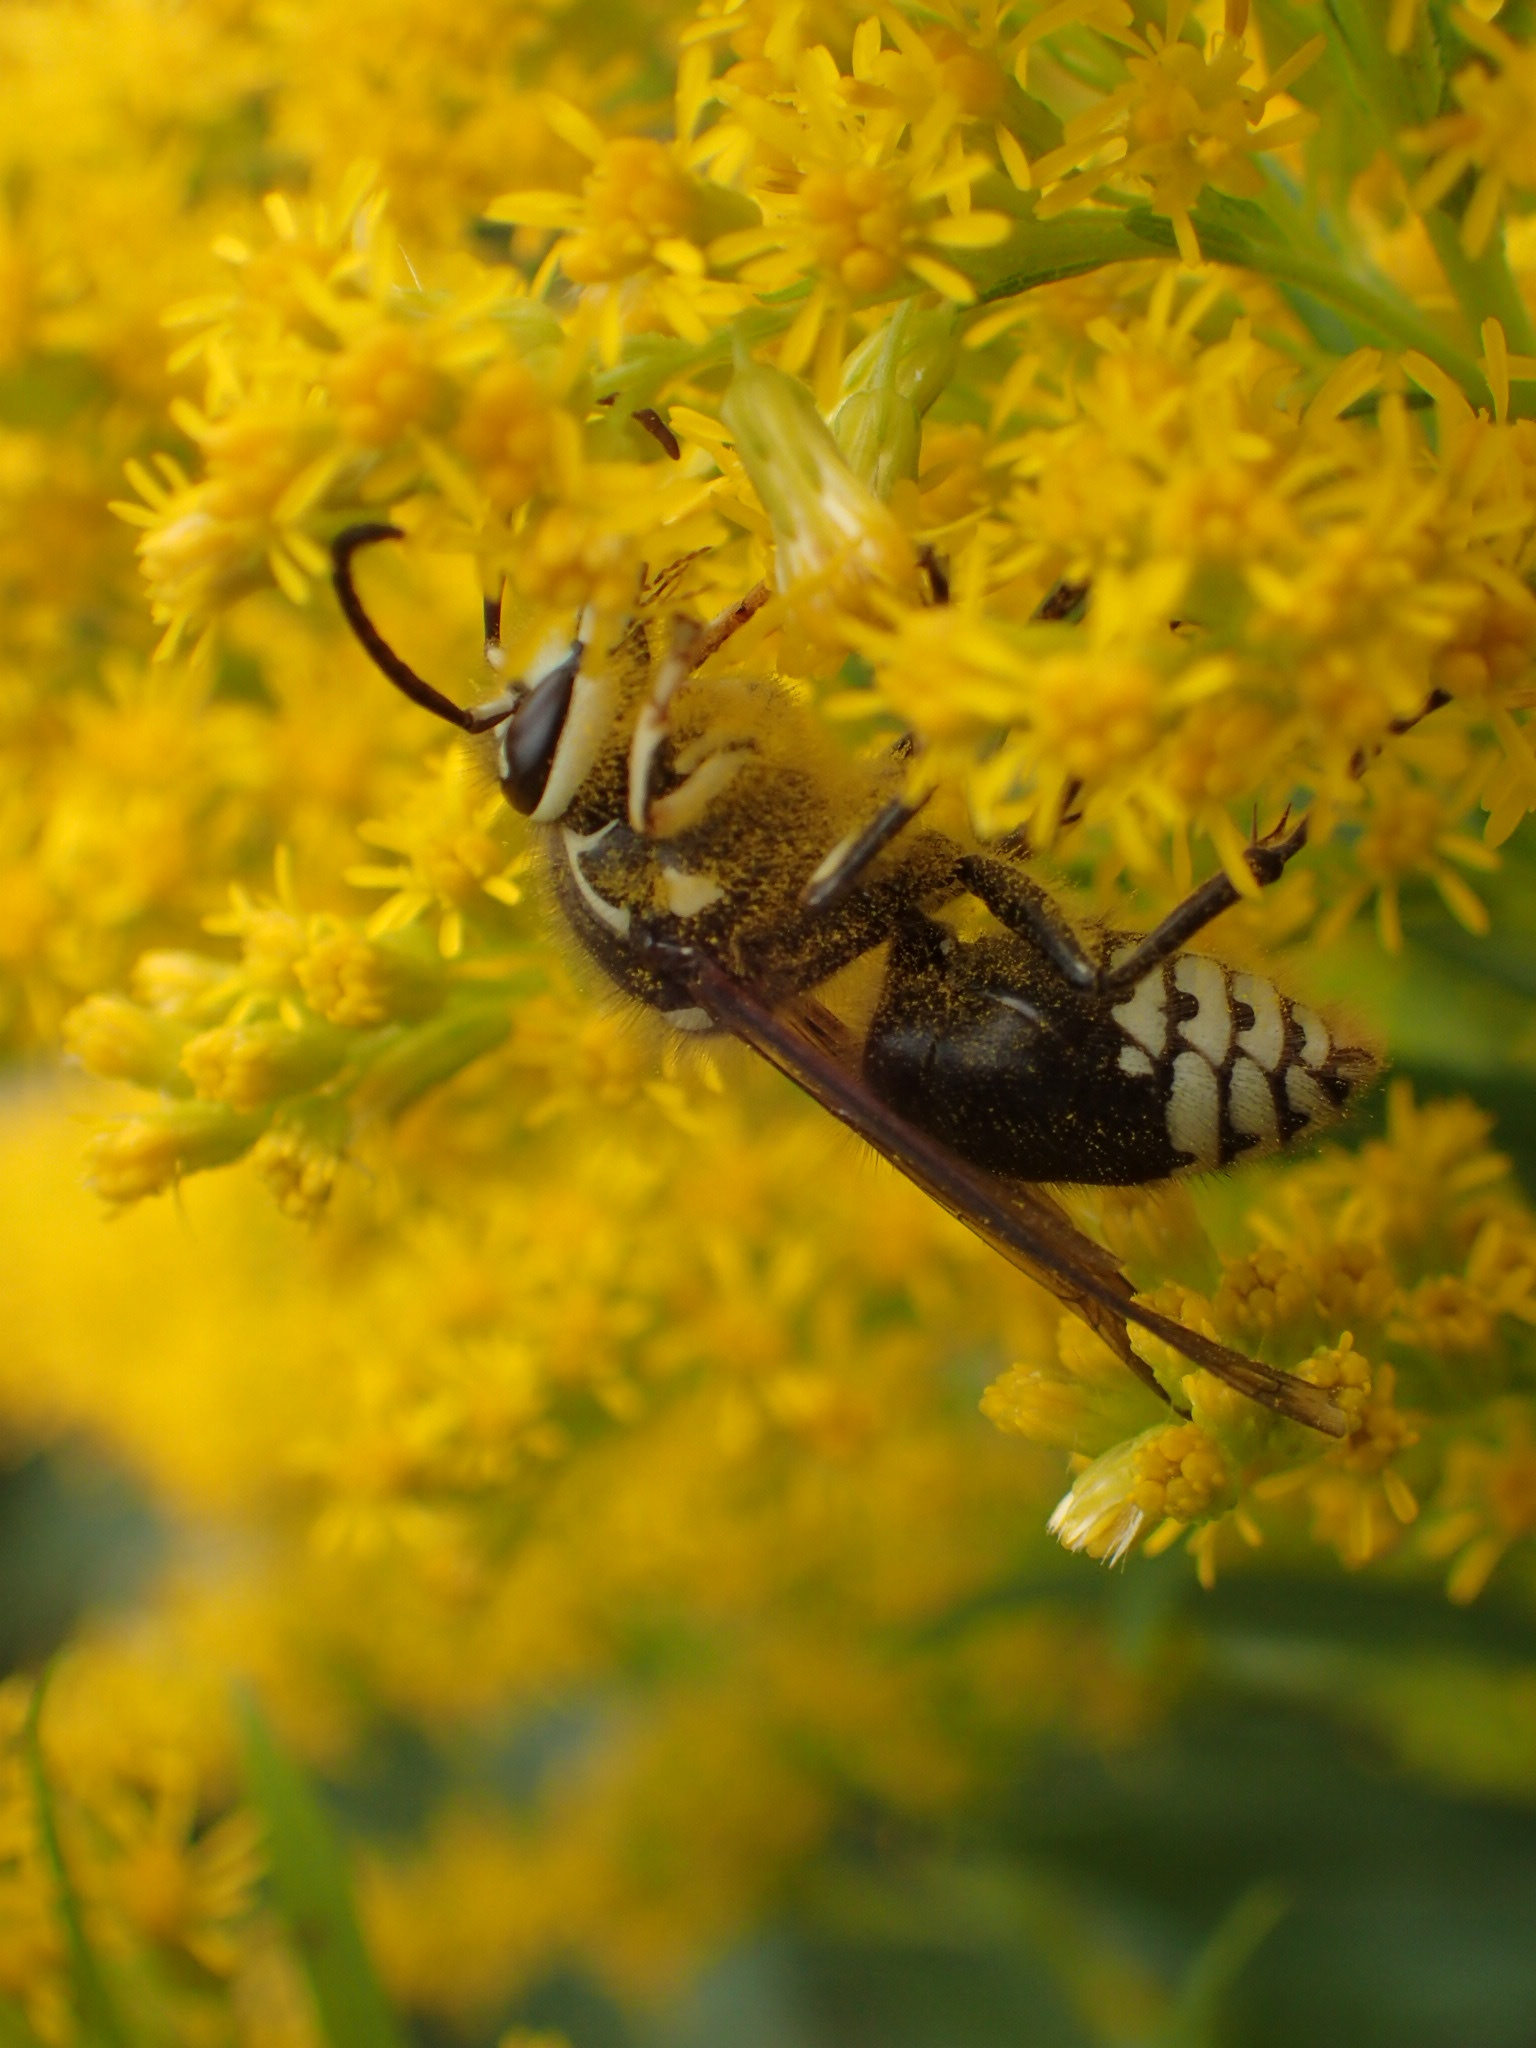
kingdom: Animalia
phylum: Arthropoda
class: Insecta
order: Hymenoptera
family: Vespidae
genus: Dolichovespula
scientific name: Dolichovespula maculata
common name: Bald-faced hornet
